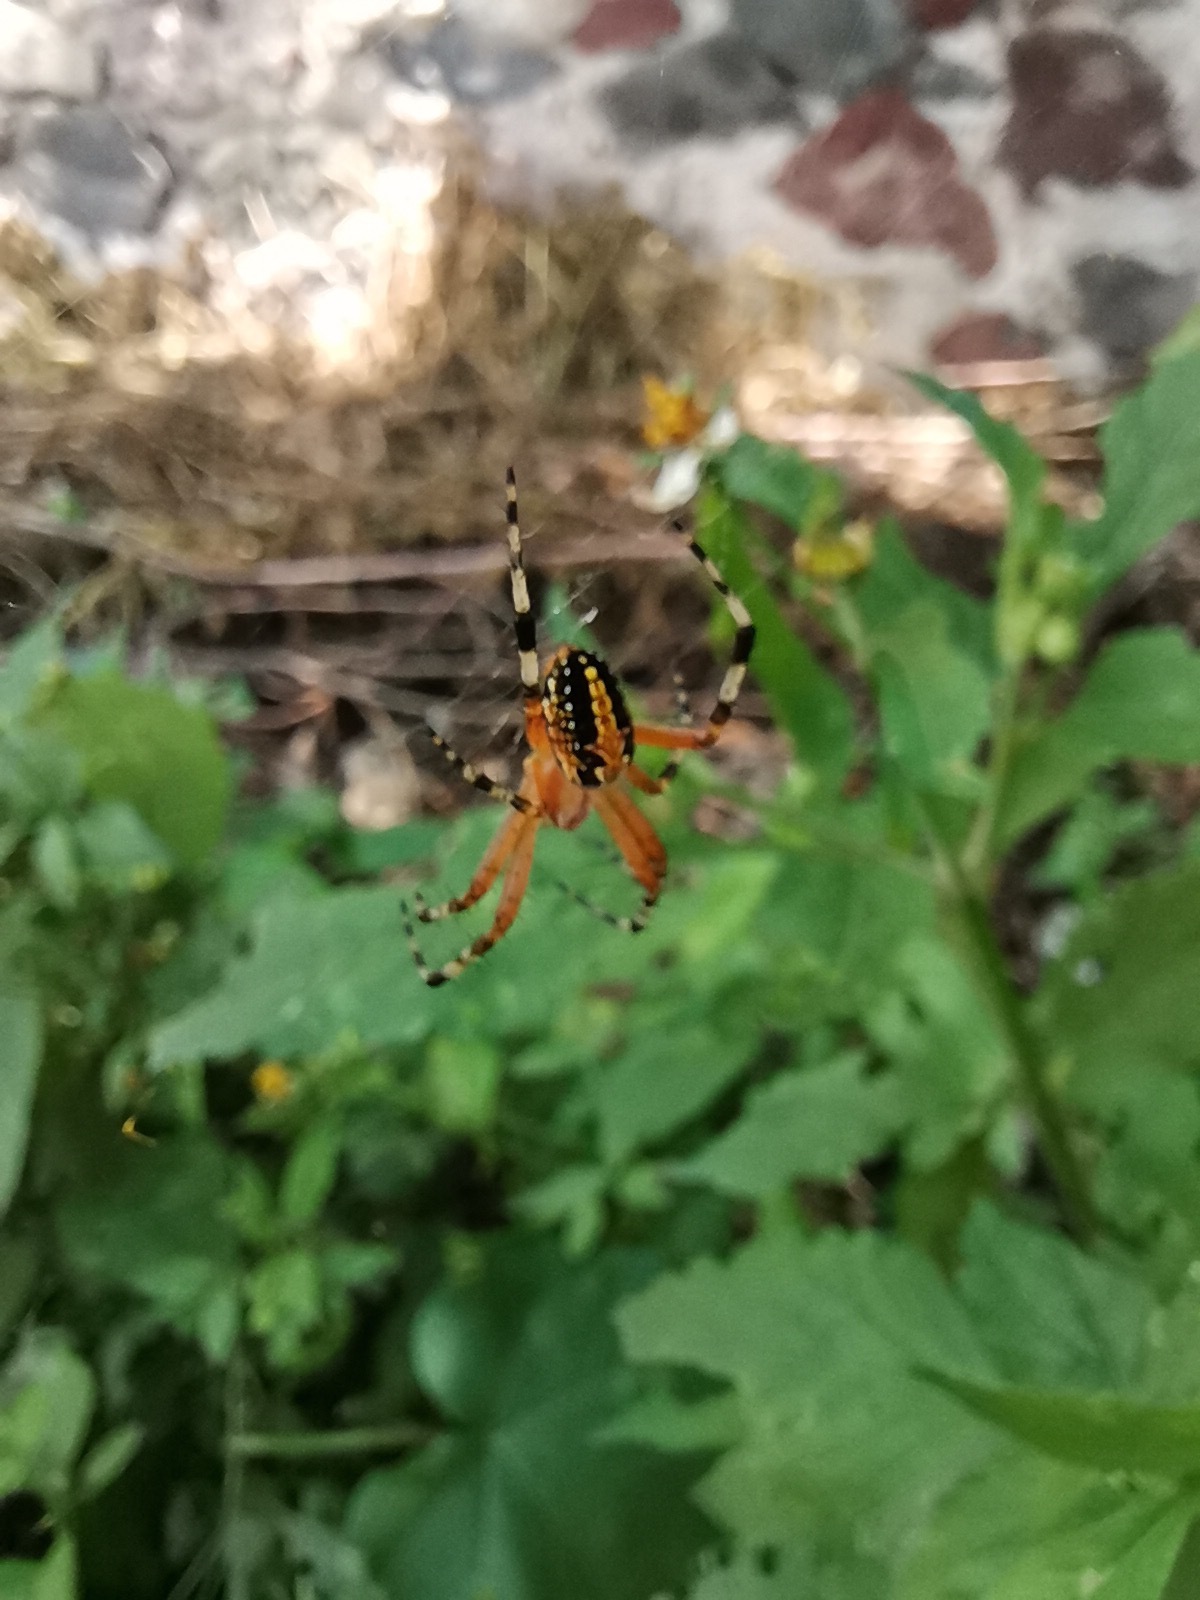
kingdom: Animalia
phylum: Arthropoda
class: Arachnida
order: Araneae
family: Araneidae
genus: Neoscona
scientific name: Neoscona oaxacensis
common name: Orb weavers
